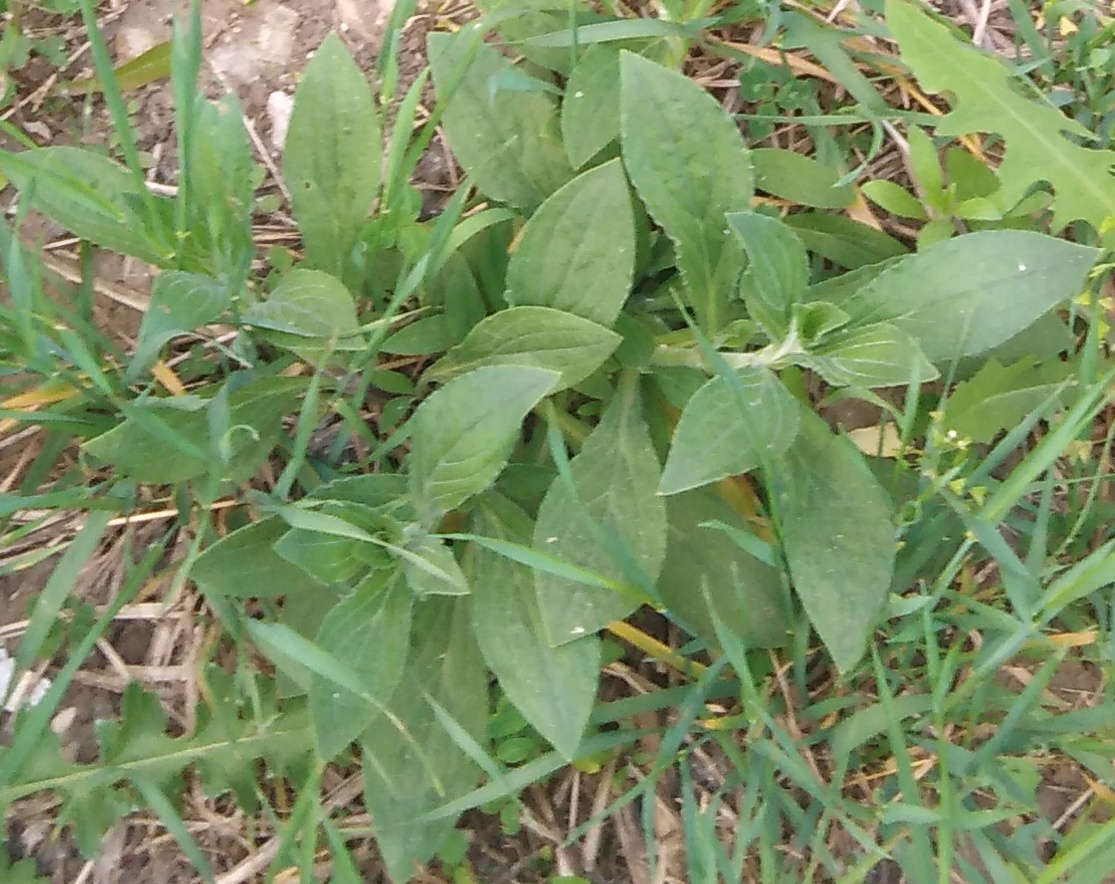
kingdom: Plantae
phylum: Tracheophyta
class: Magnoliopsida
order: Caryophyllales
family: Caryophyllaceae
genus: Silene
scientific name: Silene latifolia
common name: White campion
